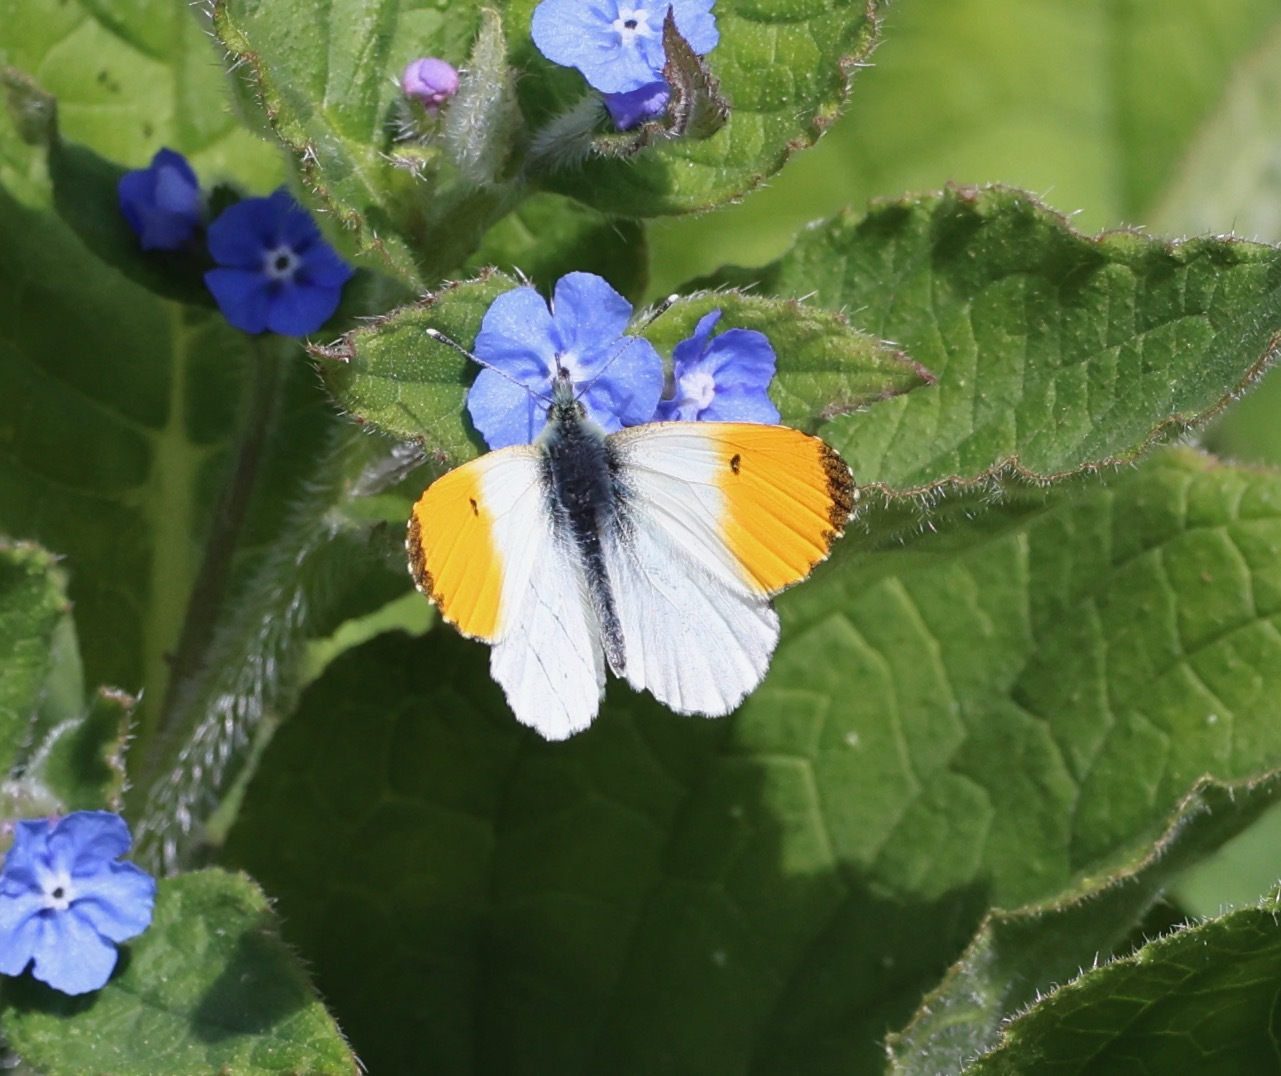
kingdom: Animalia
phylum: Arthropoda
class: Insecta
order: Lepidoptera
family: Pieridae
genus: Anthocharis
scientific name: Anthocharis cardamines
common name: Orange-tip
